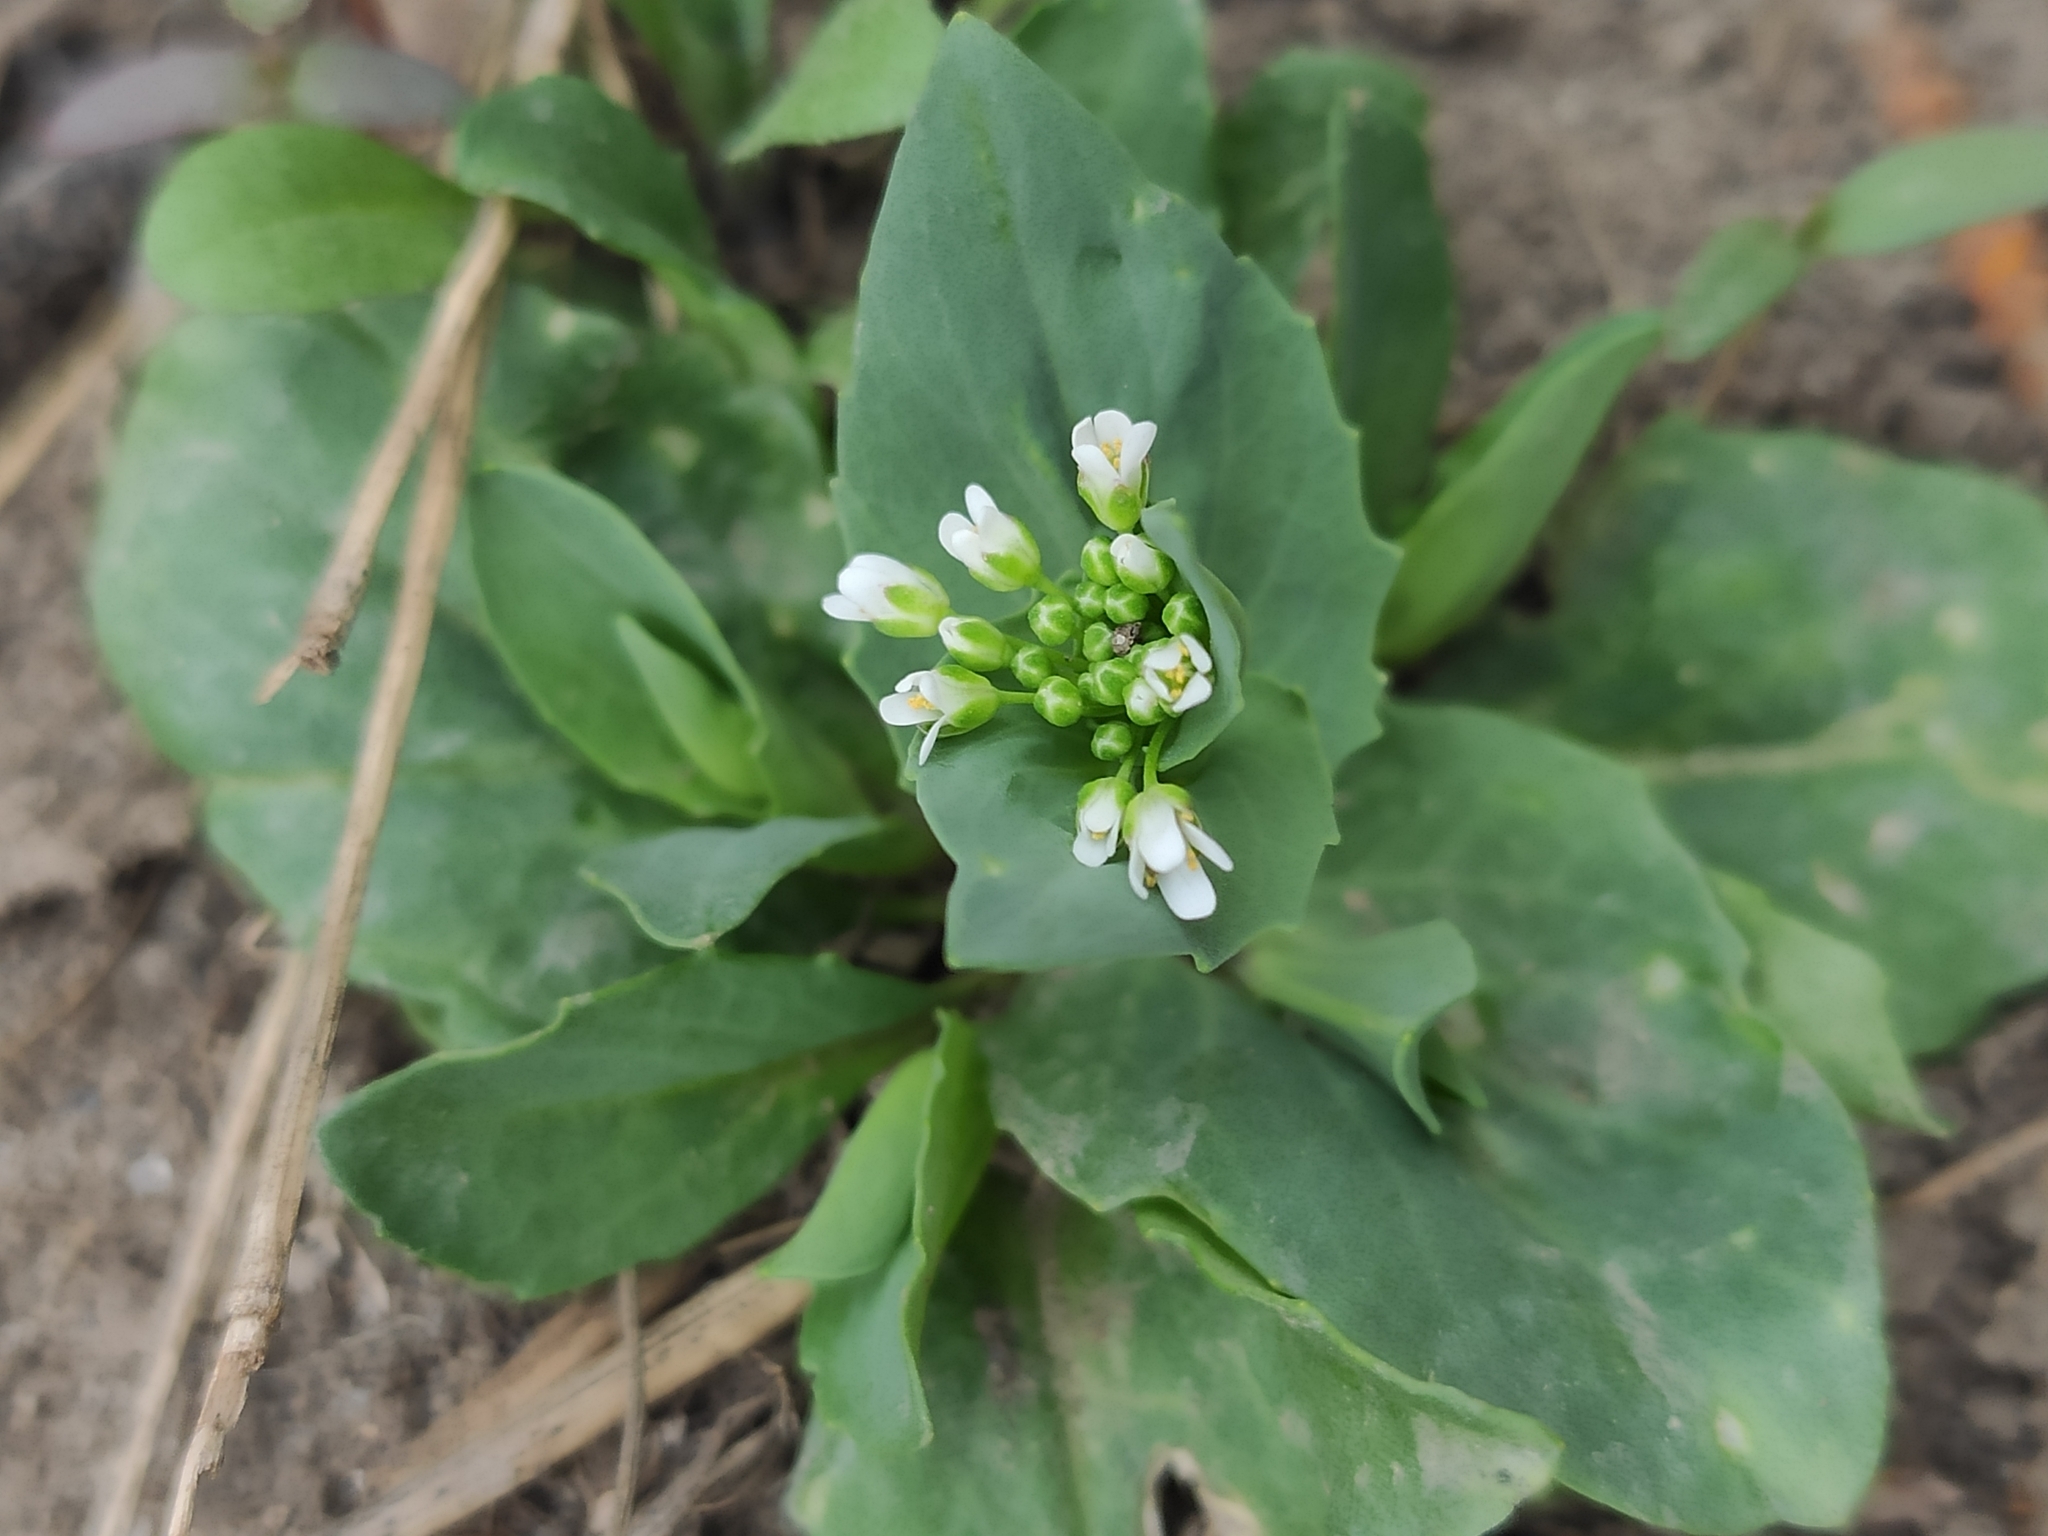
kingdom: Plantae
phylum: Tracheophyta
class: Magnoliopsida
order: Brassicales
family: Brassicaceae
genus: Noccaea
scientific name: Noccaea perfoliata
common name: Perfoliate pennycress
